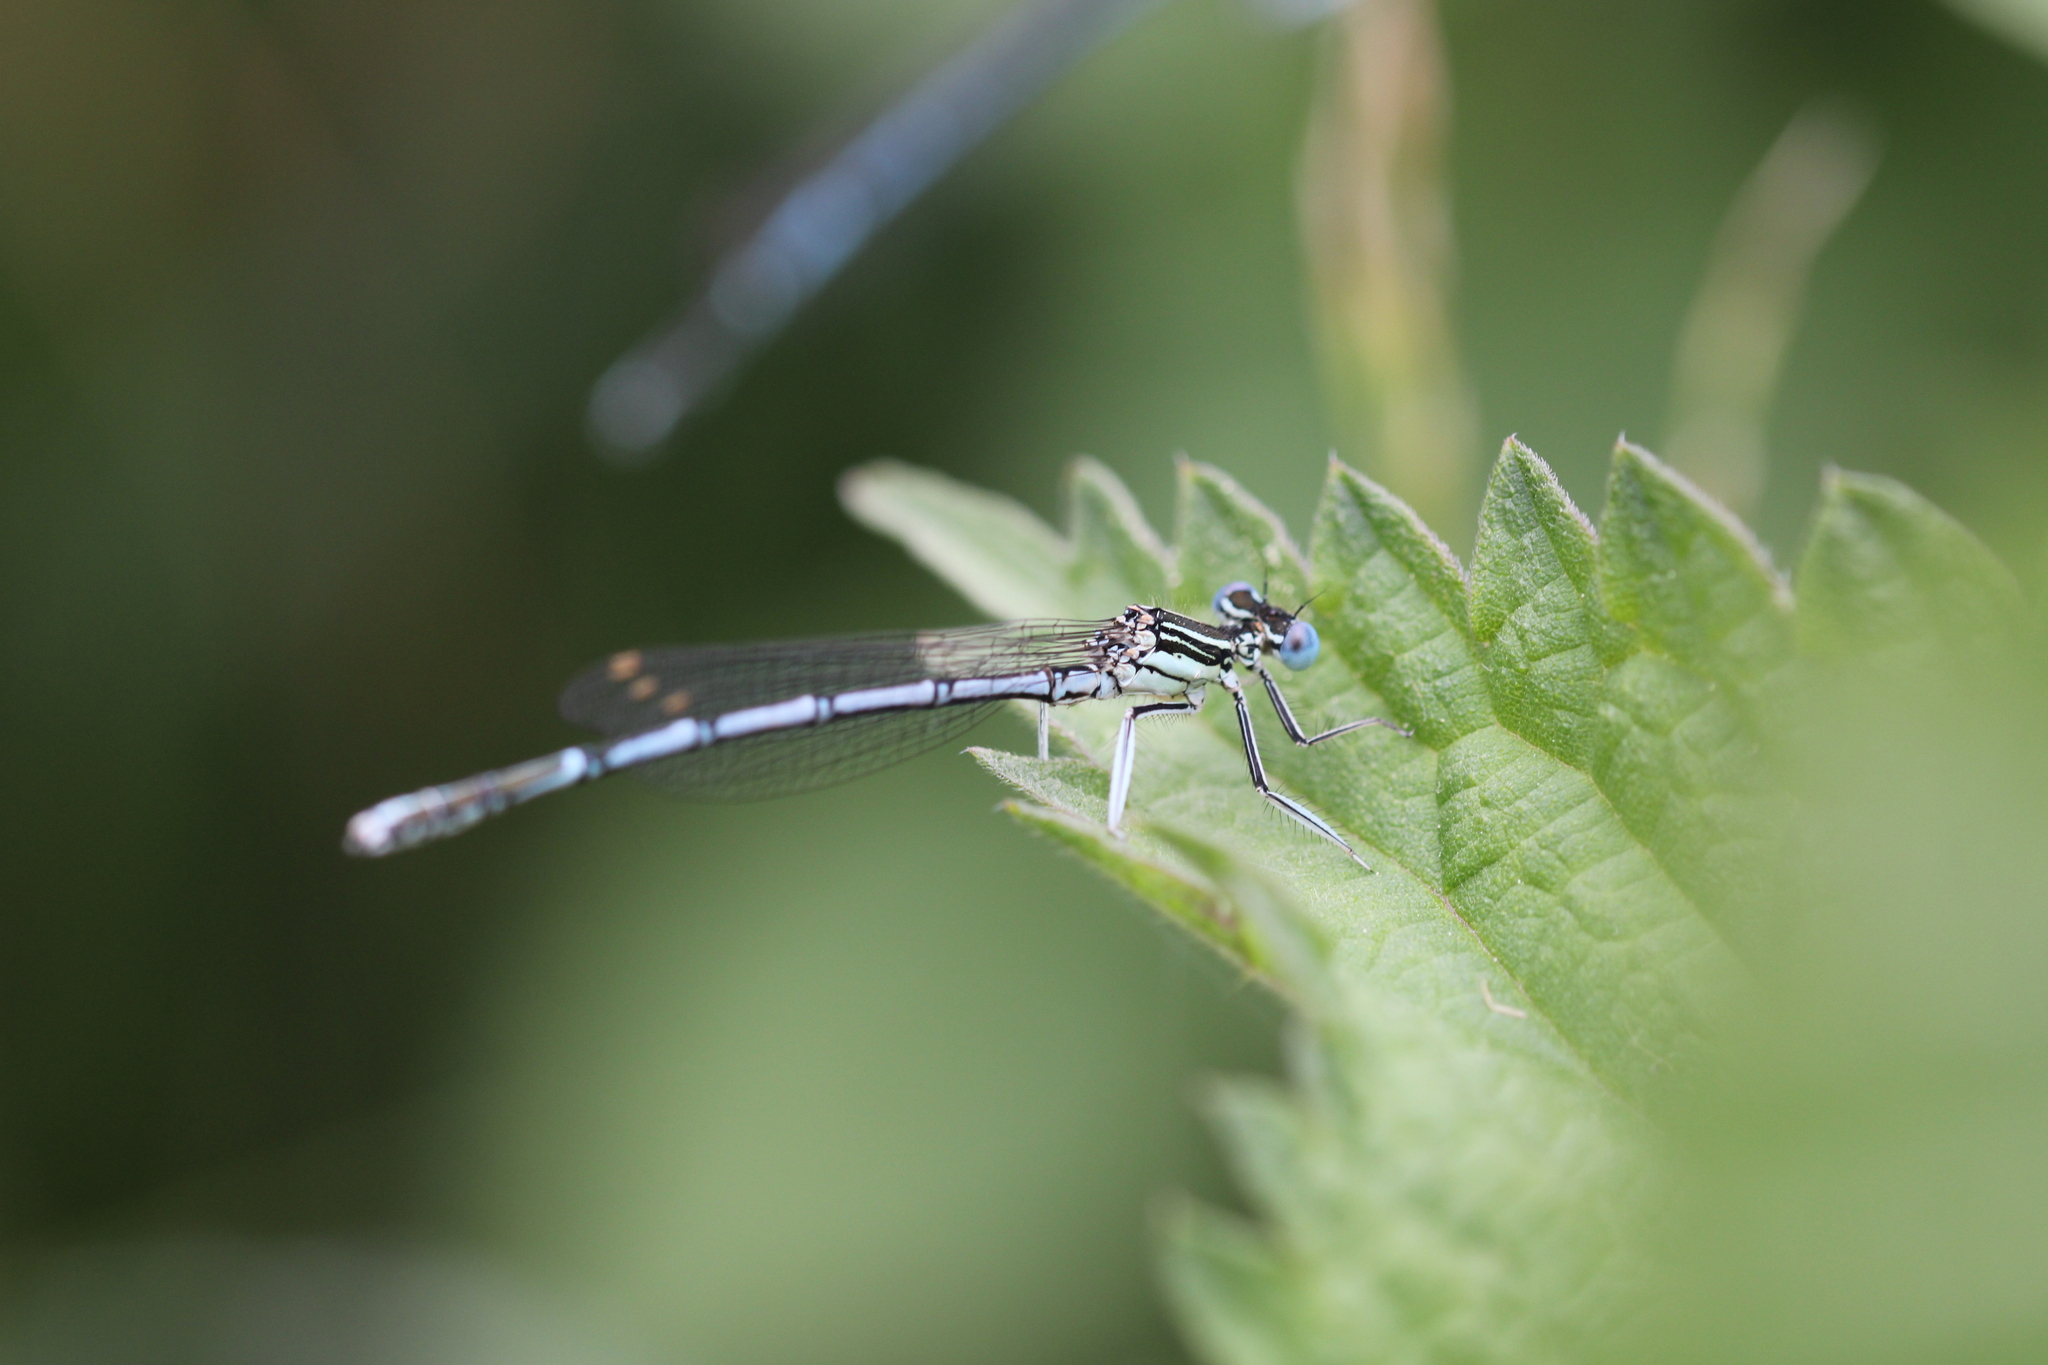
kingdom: Animalia
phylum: Arthropoda
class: Insecta
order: Odonata
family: Platycnemididae
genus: Platycnemis
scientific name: Platycnemis pennipes
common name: White-legged damselfly
